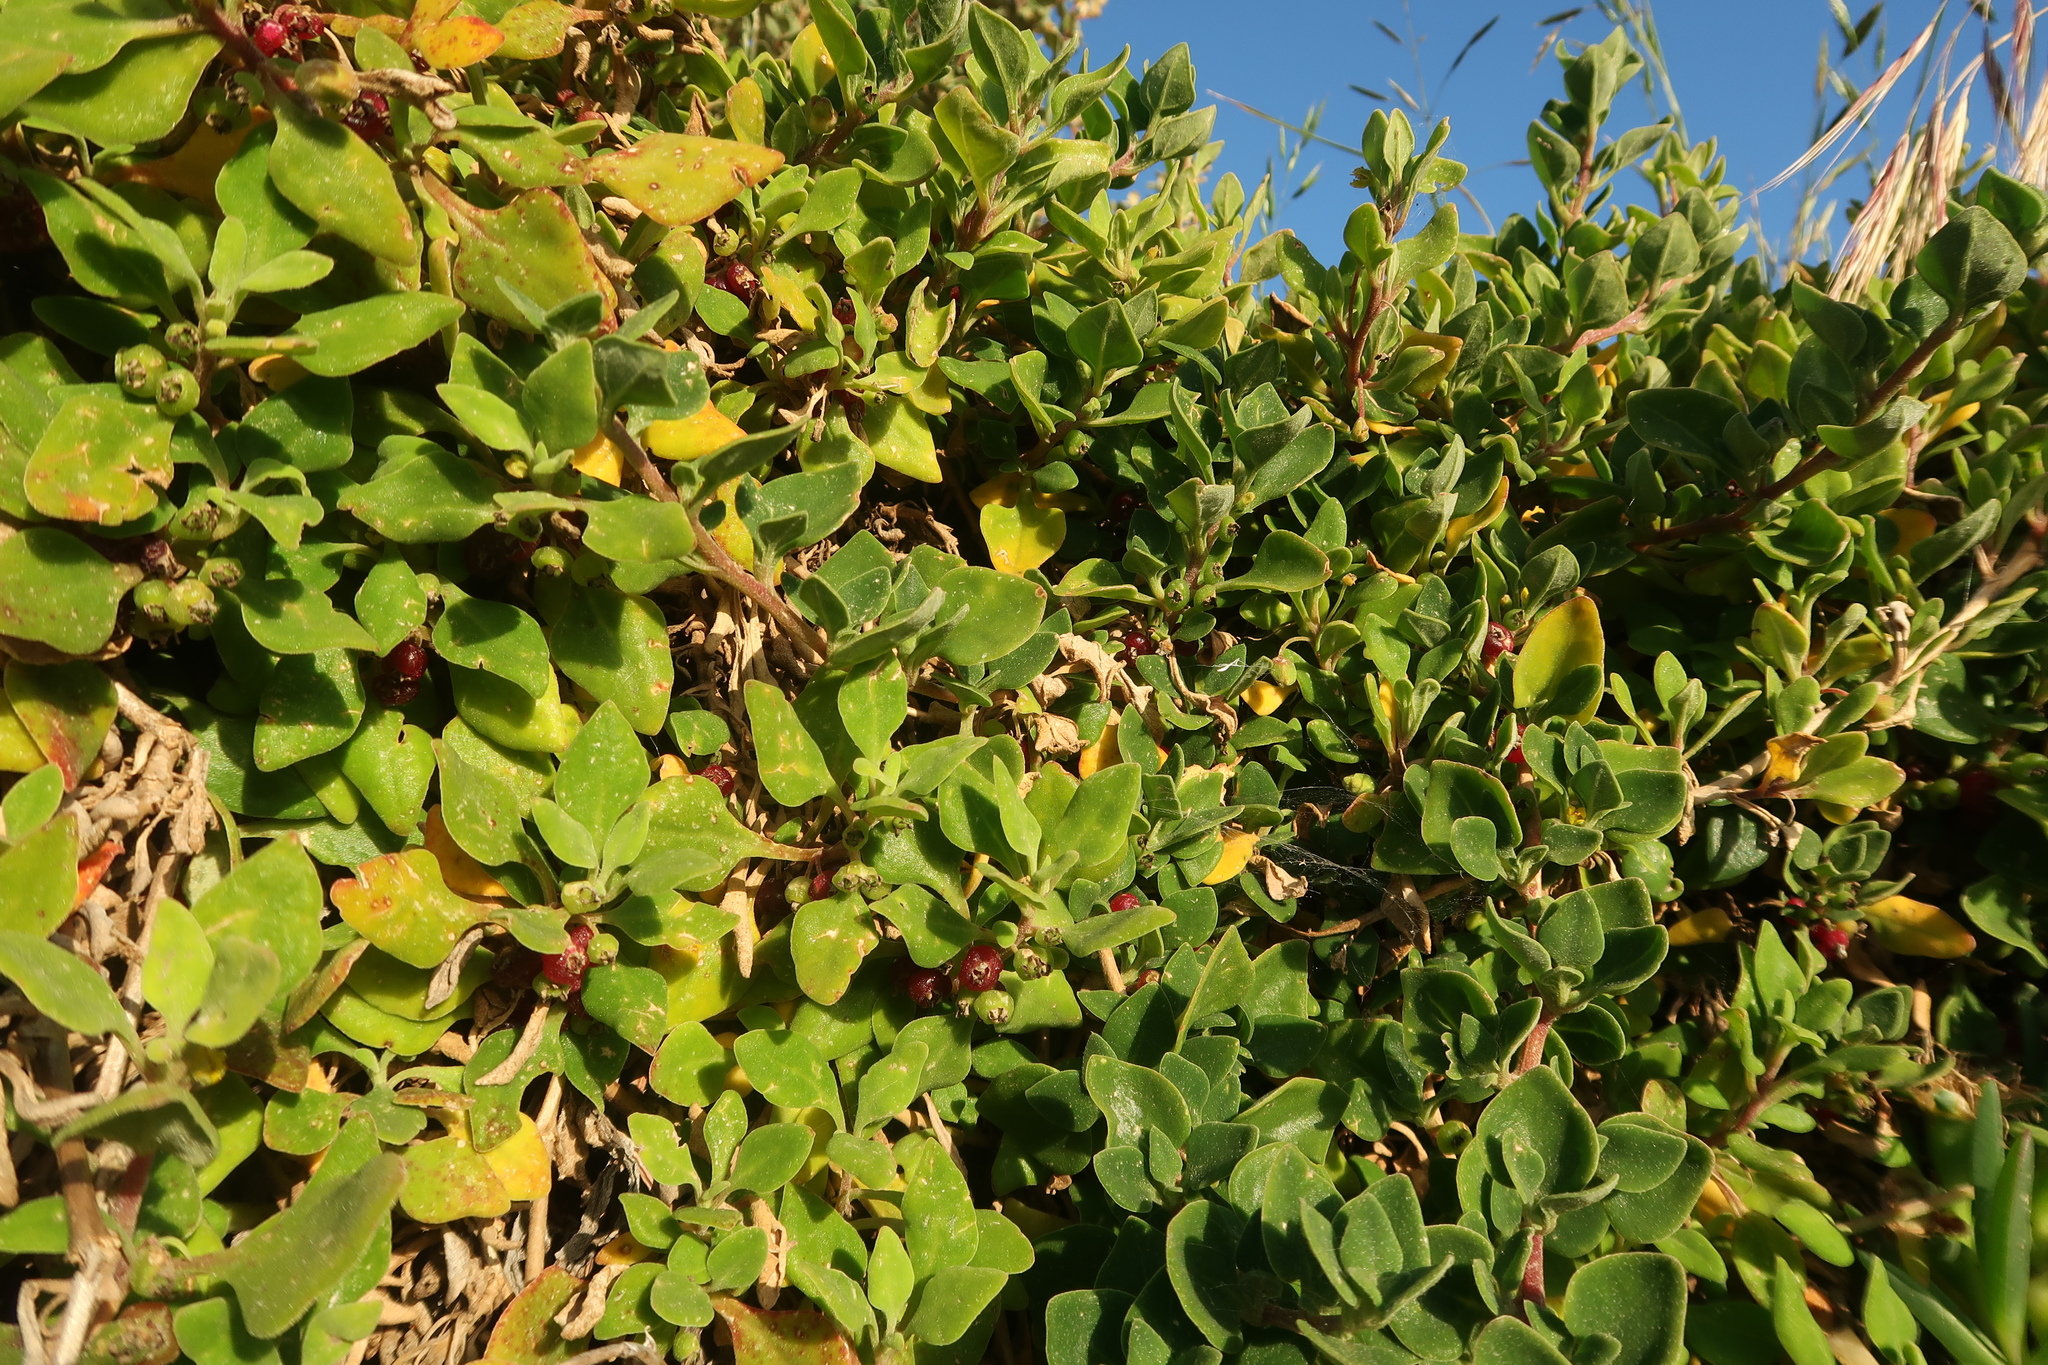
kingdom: Plantae
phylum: Tracheophyta
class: Magnoliopsida
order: Caryophyllales
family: Aizoaceae
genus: Tetragonia
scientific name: Tetragonia implexicoma
